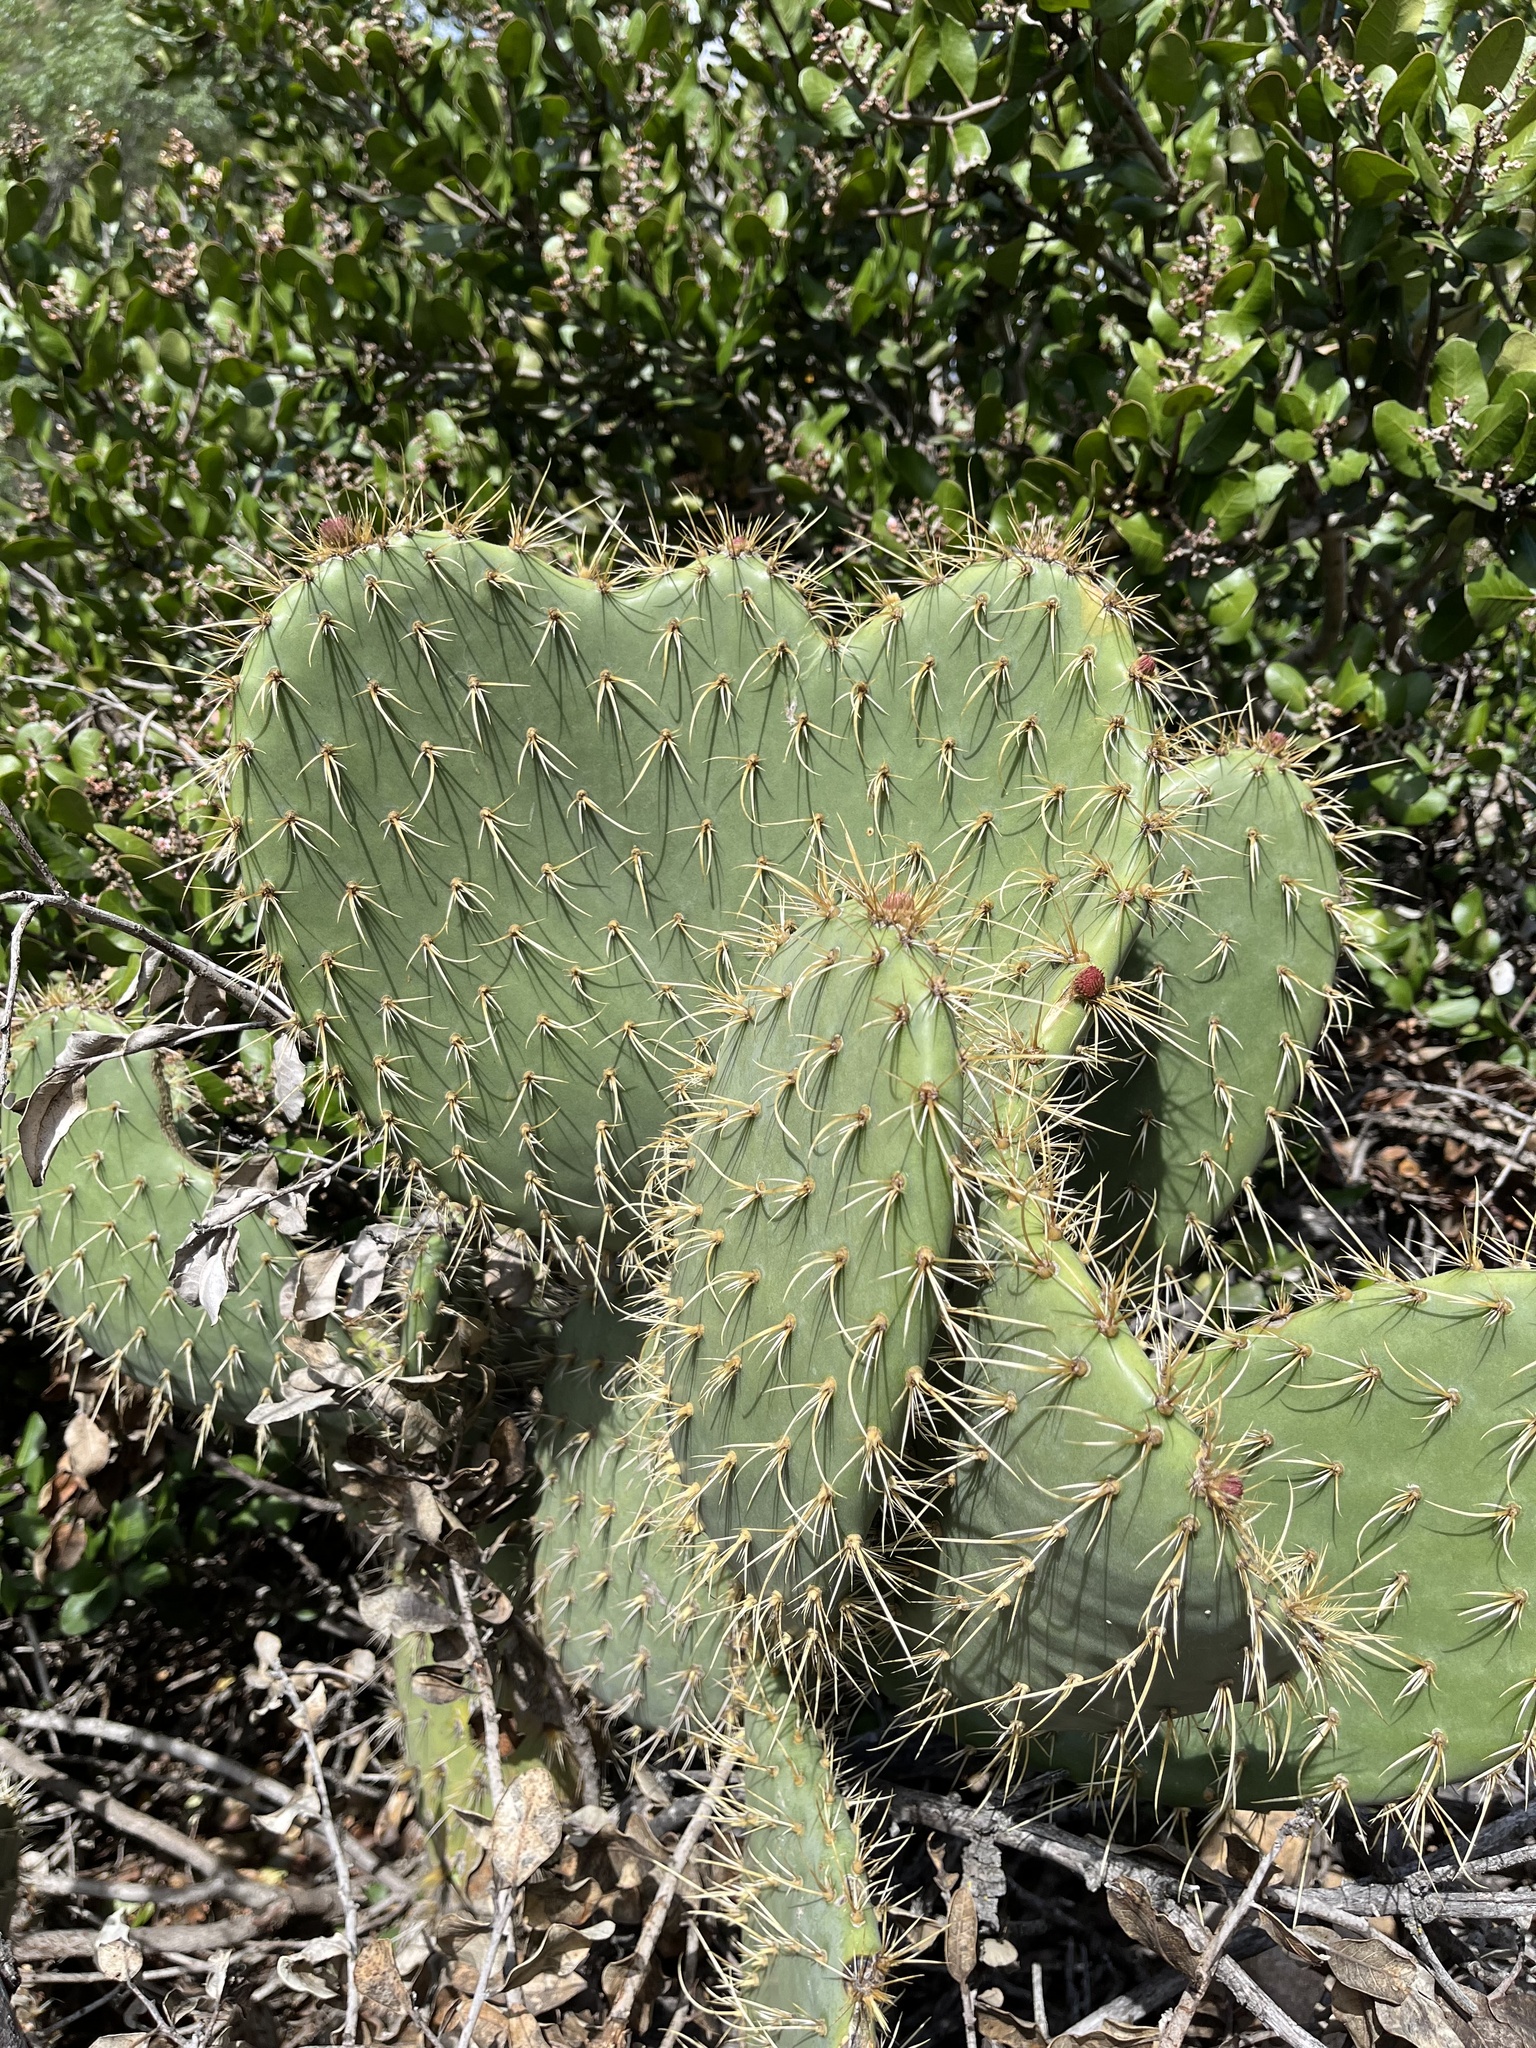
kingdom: Plantae
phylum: Tracheophyta
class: Magnoliopsida
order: Caryophyllales
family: Cactaceae
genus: Opuntia
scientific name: Opuntia oricola
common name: Chaparral prickly-pear
